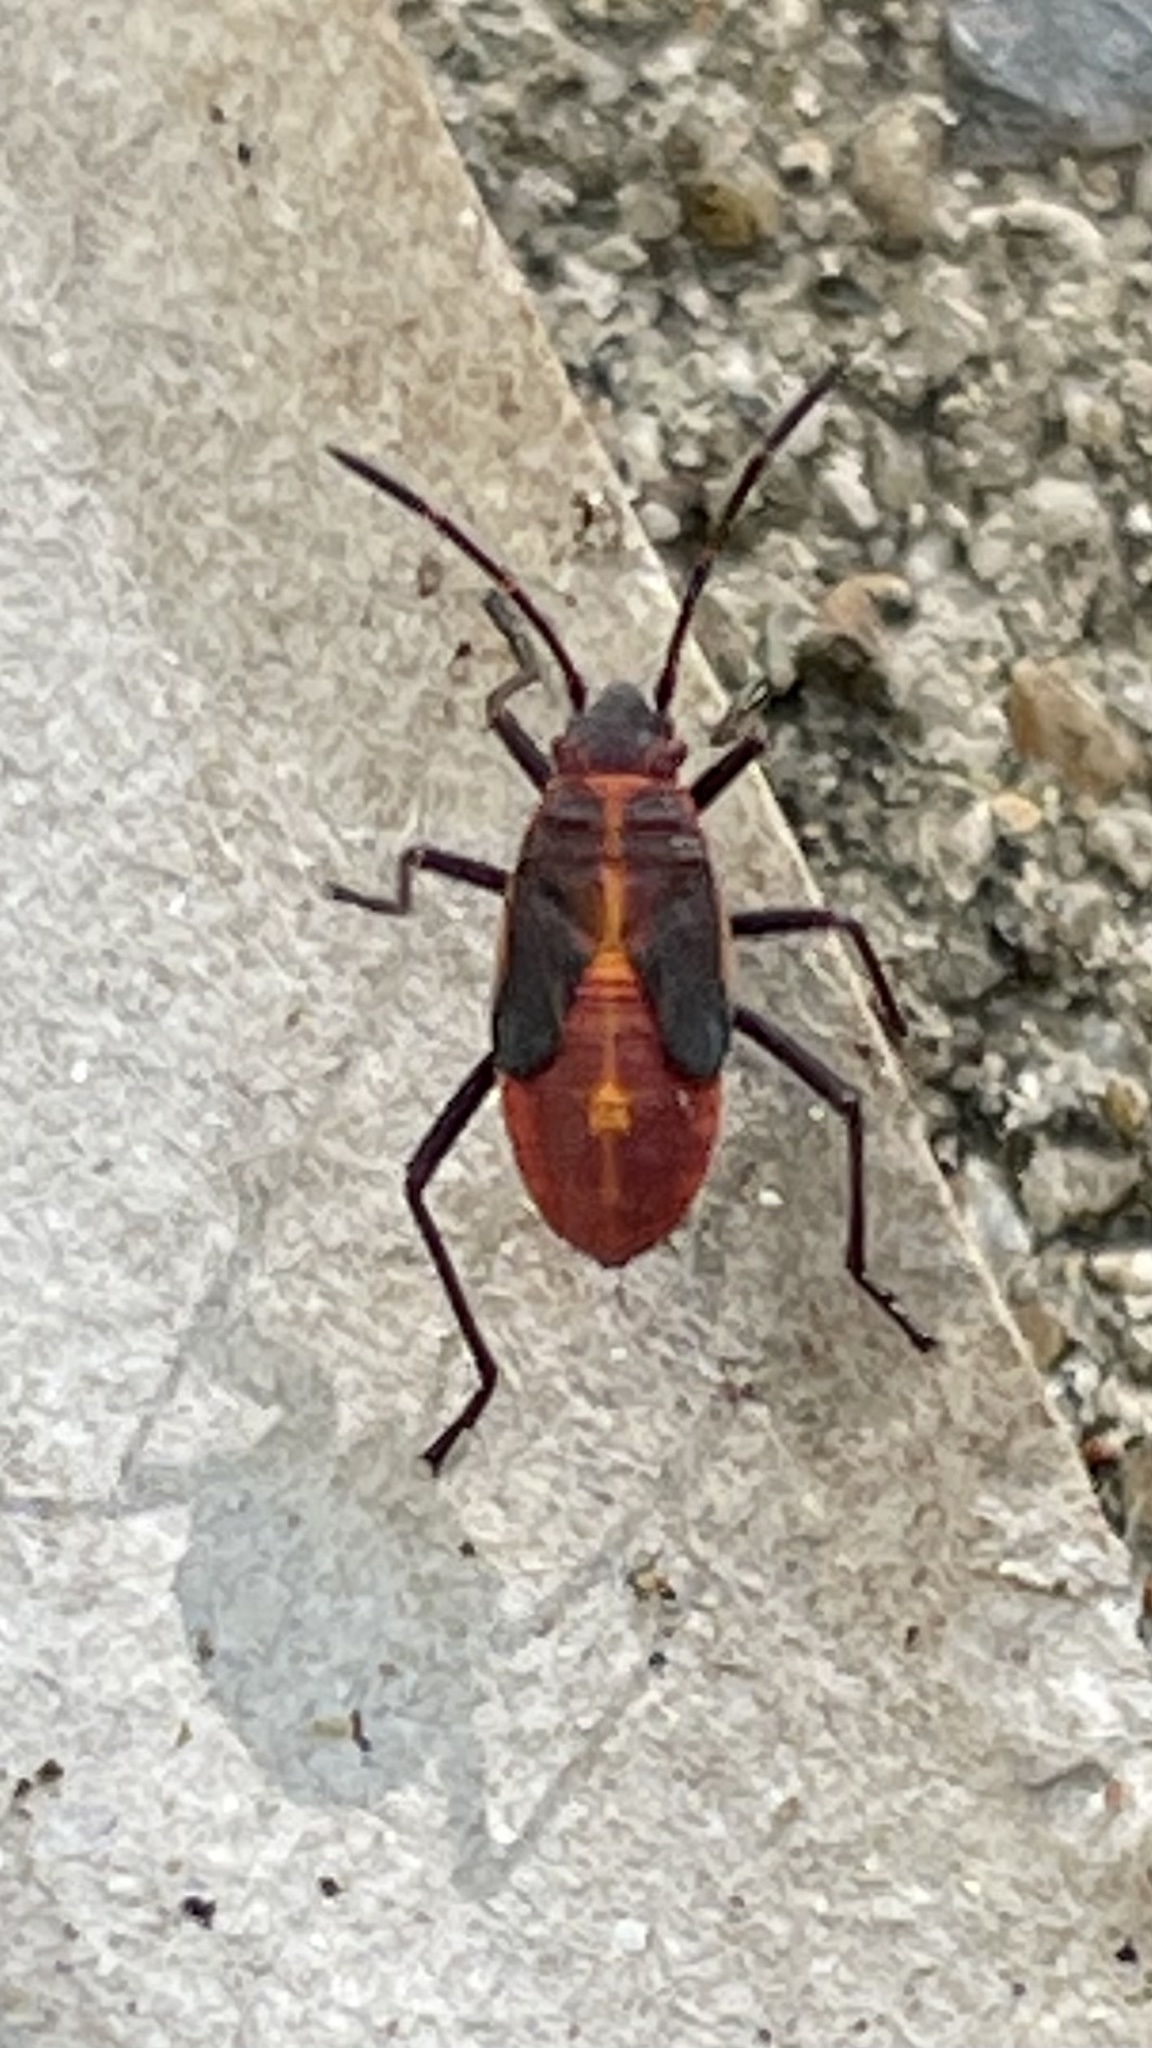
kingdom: Animalia
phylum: Arthropoda
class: Insecta
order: Hemiptera
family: Rhopalidae
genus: Boisea
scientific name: Boisea trivittata
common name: Boxelder bug
